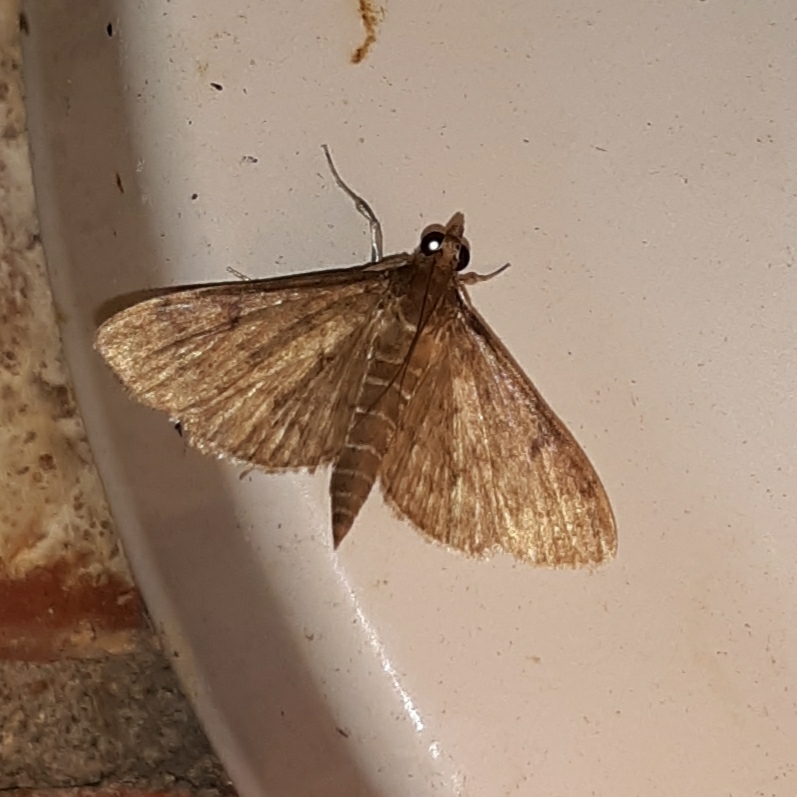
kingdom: Animalia
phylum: Arthropoda
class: Insecta
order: Lepidoptera
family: Crambidae
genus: Herpetogramma
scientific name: Herpetogramma phaeopteralis
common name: Dusky herpetogramma moth
